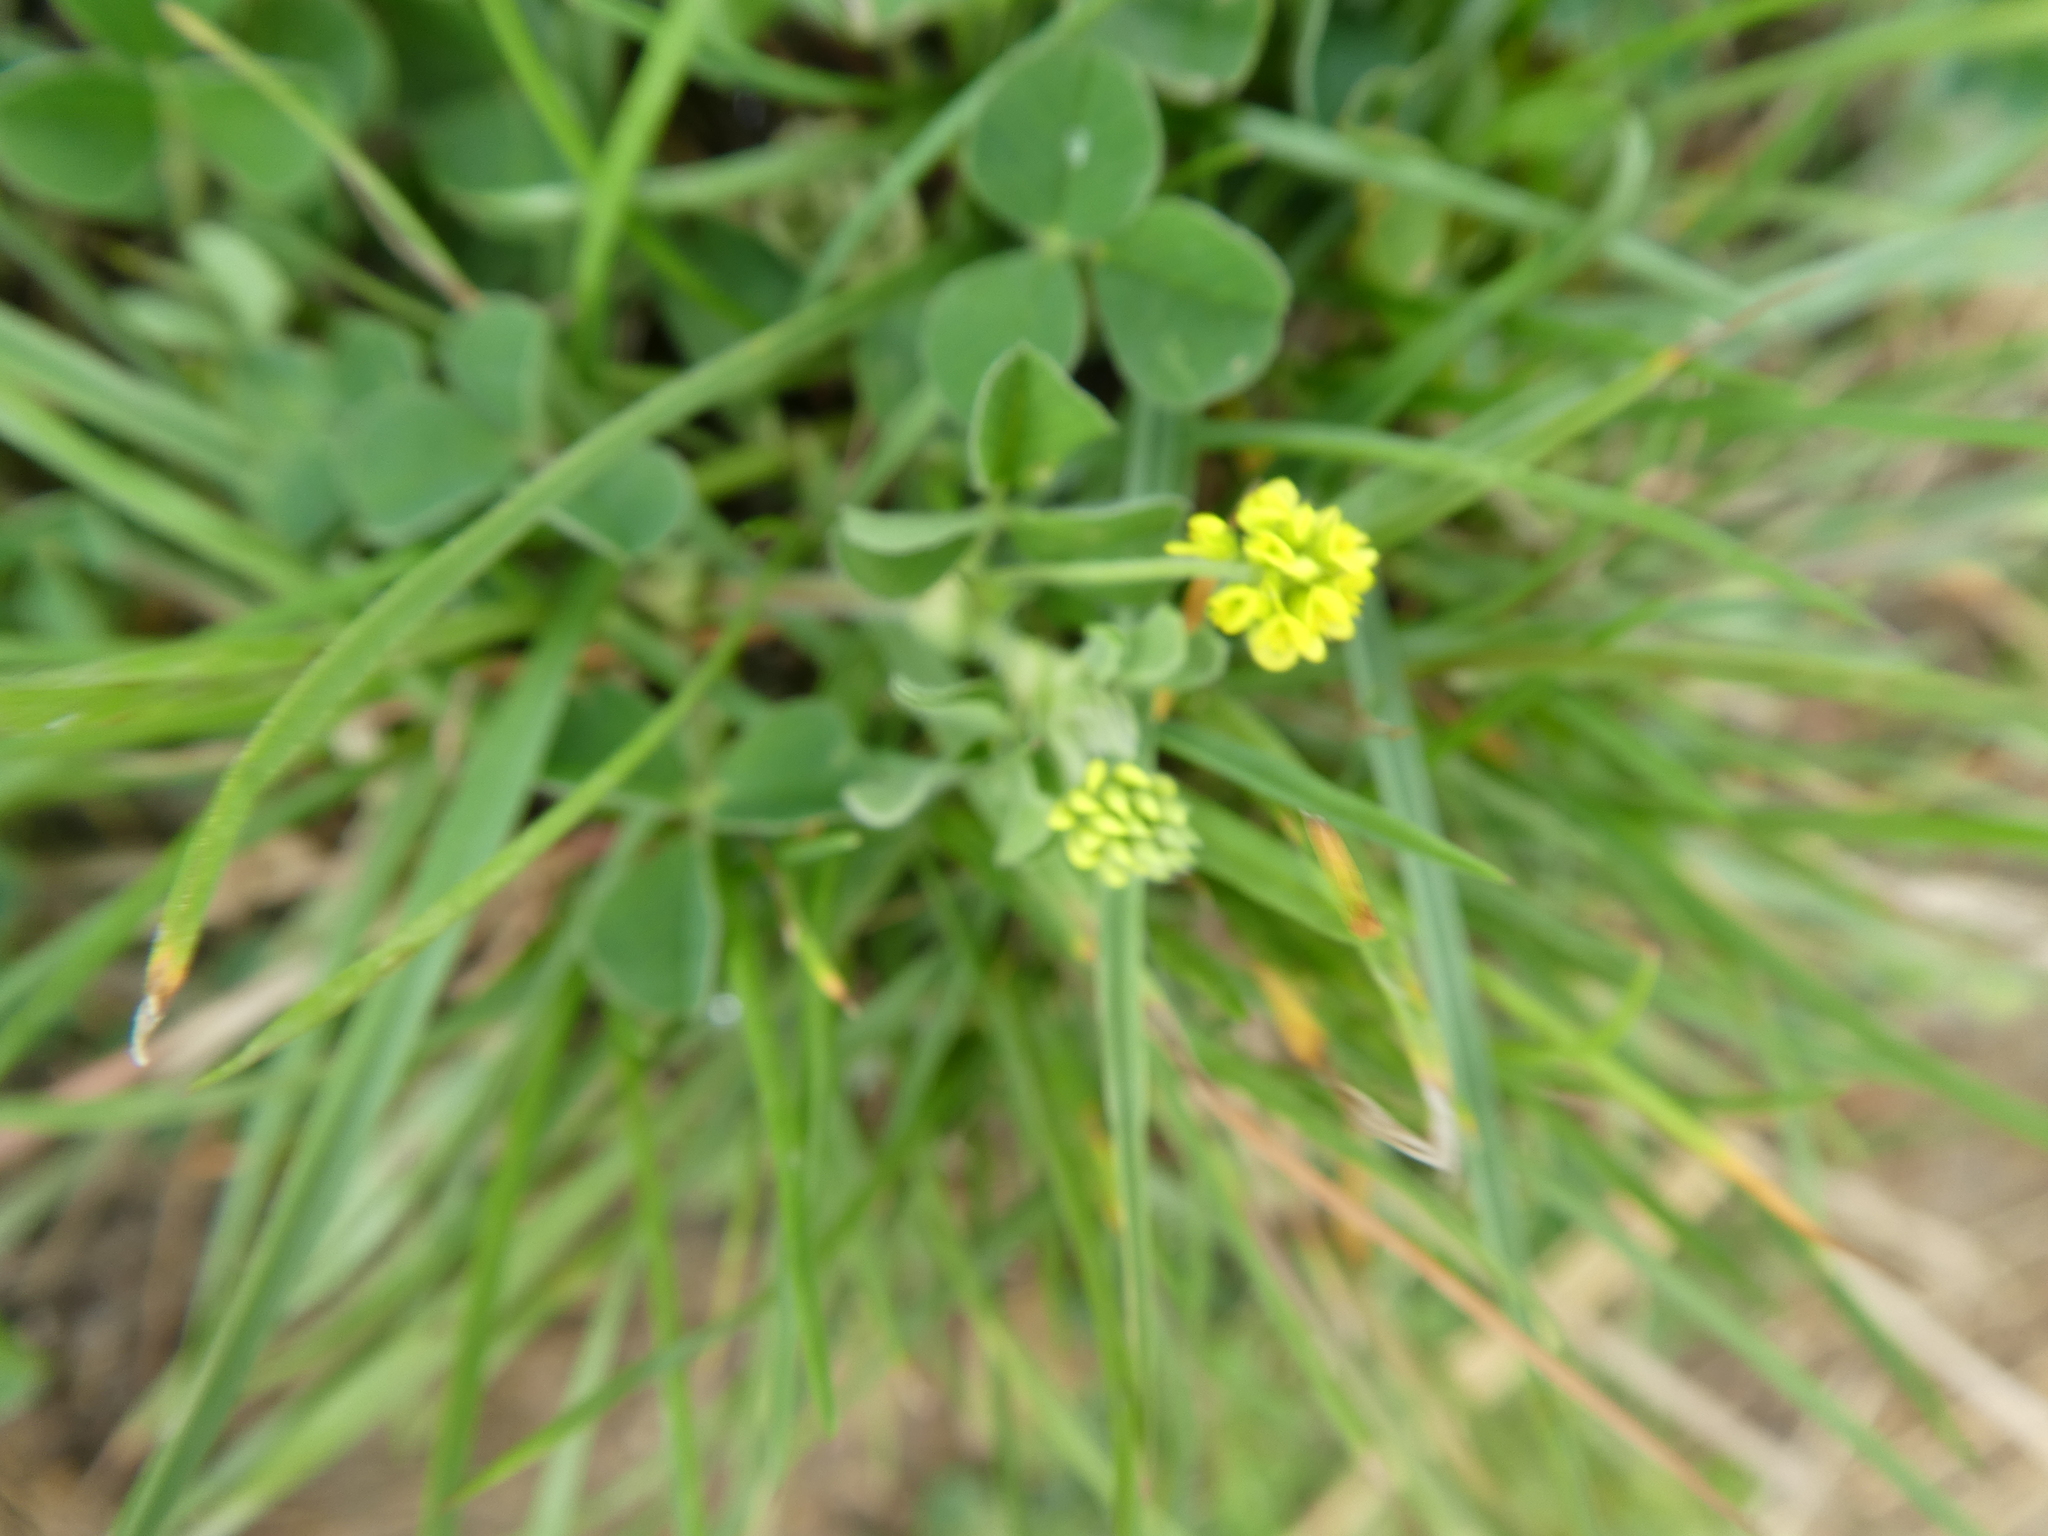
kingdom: Plantae
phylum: Tracheophyta
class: Magnoliopsida
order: Fabales
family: Fabaceae
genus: Medicago
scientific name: Medicago lupulina
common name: Black medick
